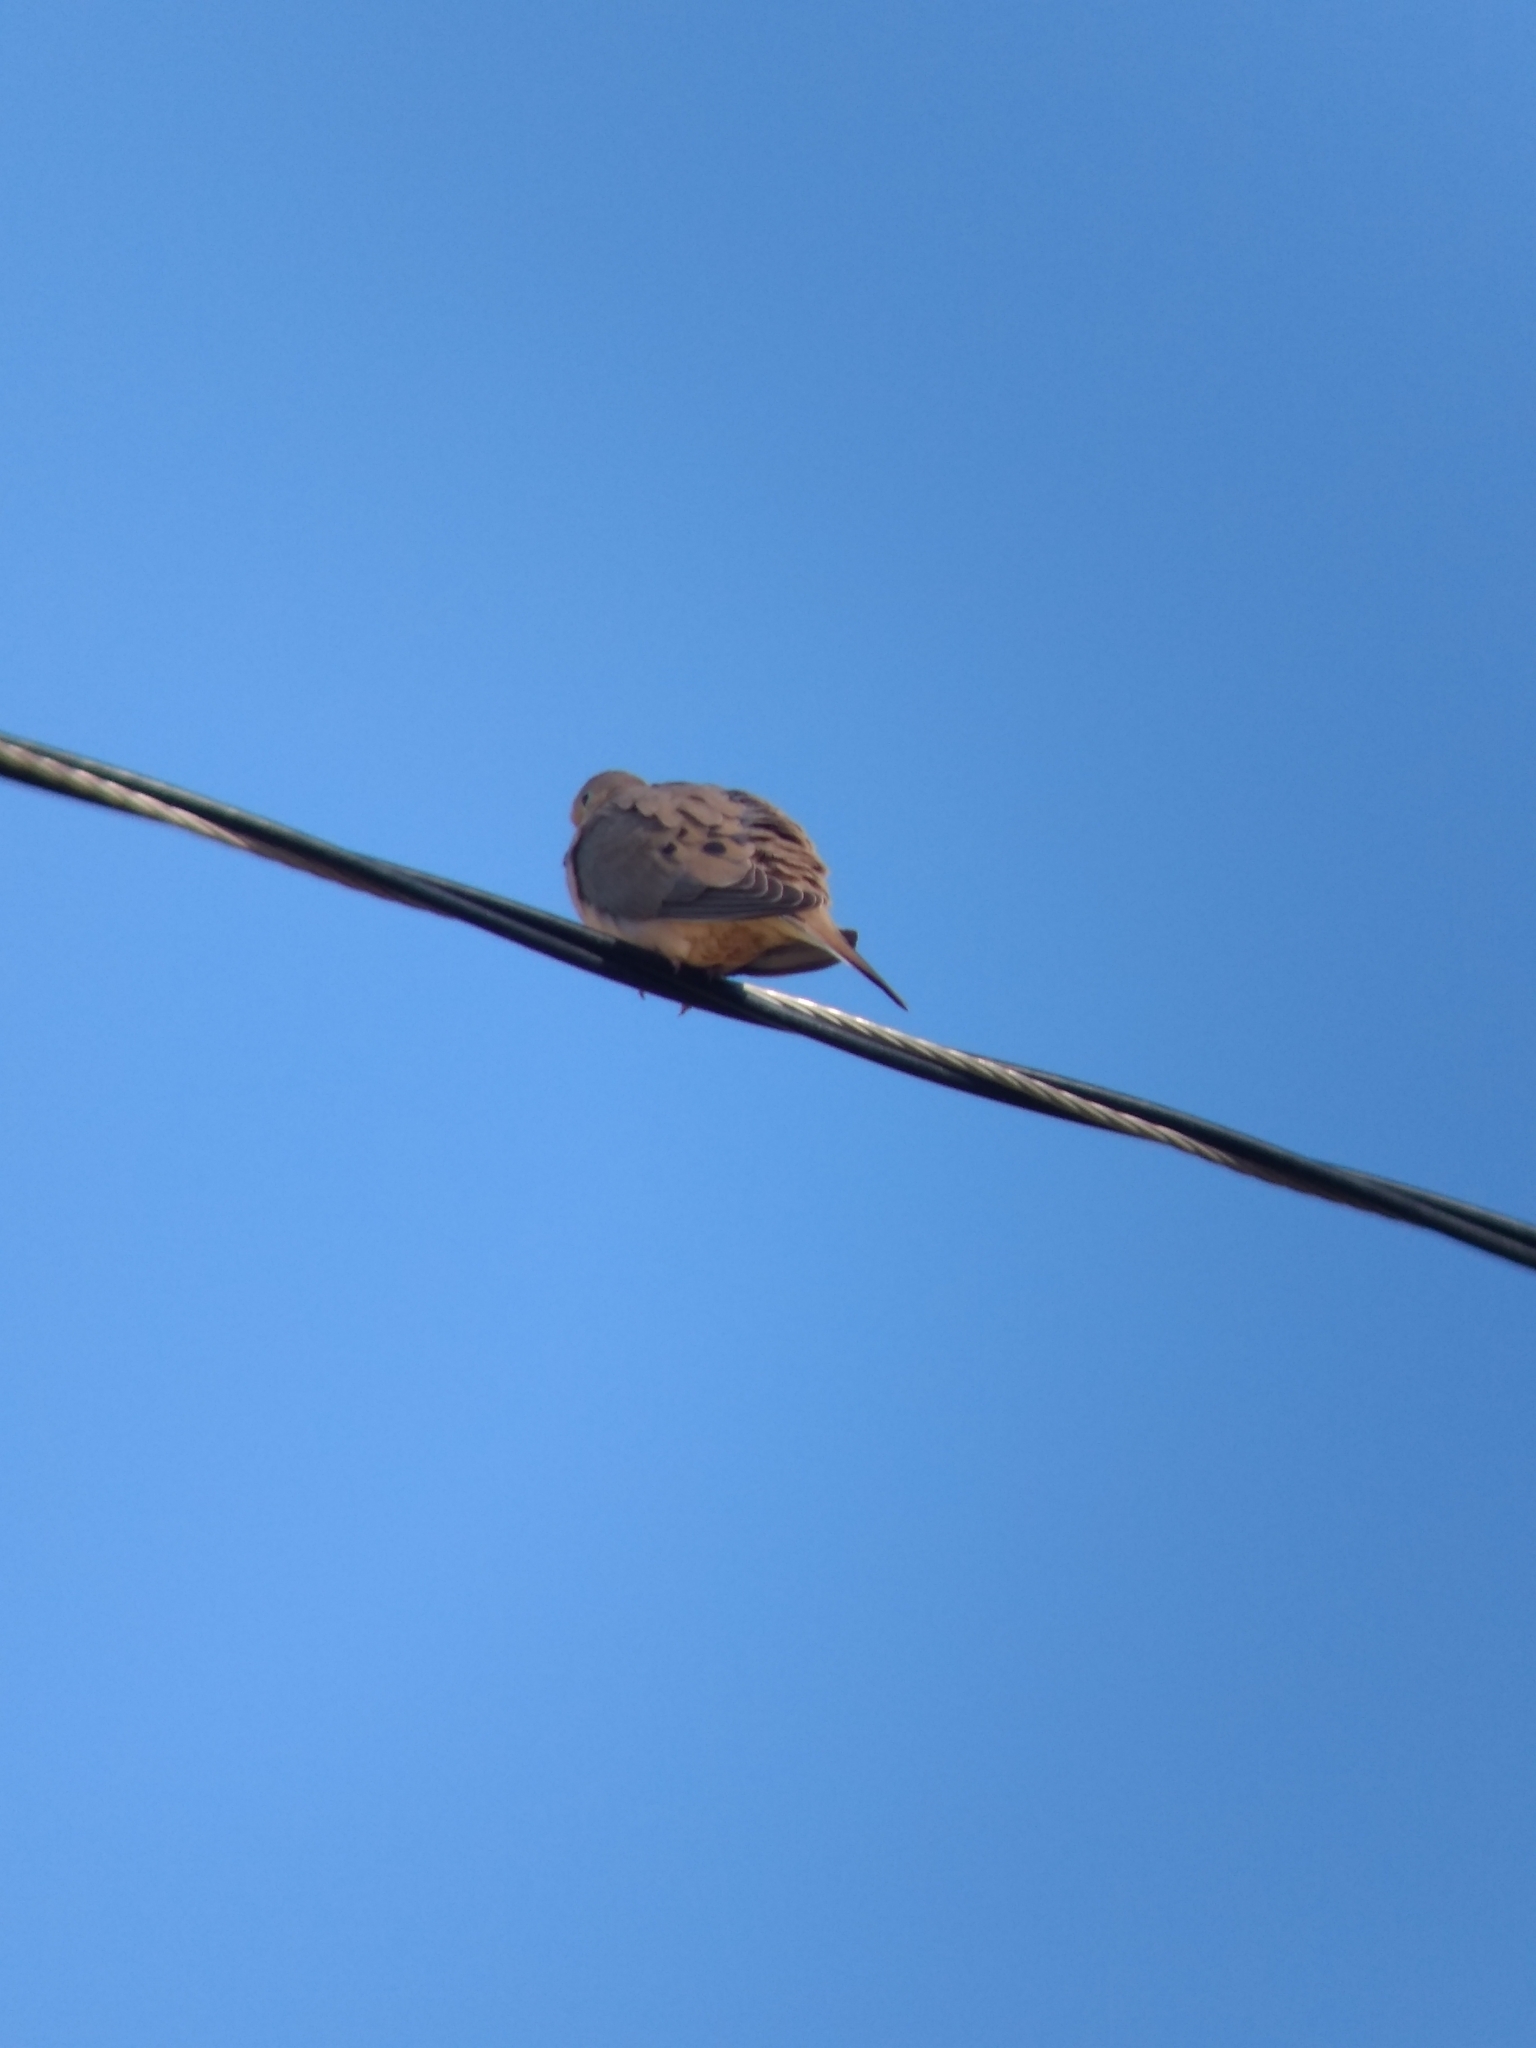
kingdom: Animalia
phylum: Chordata
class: Aves
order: Columbiformes
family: Columbidae
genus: Zenaida
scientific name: Zenaida macroura
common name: Mourning dove
